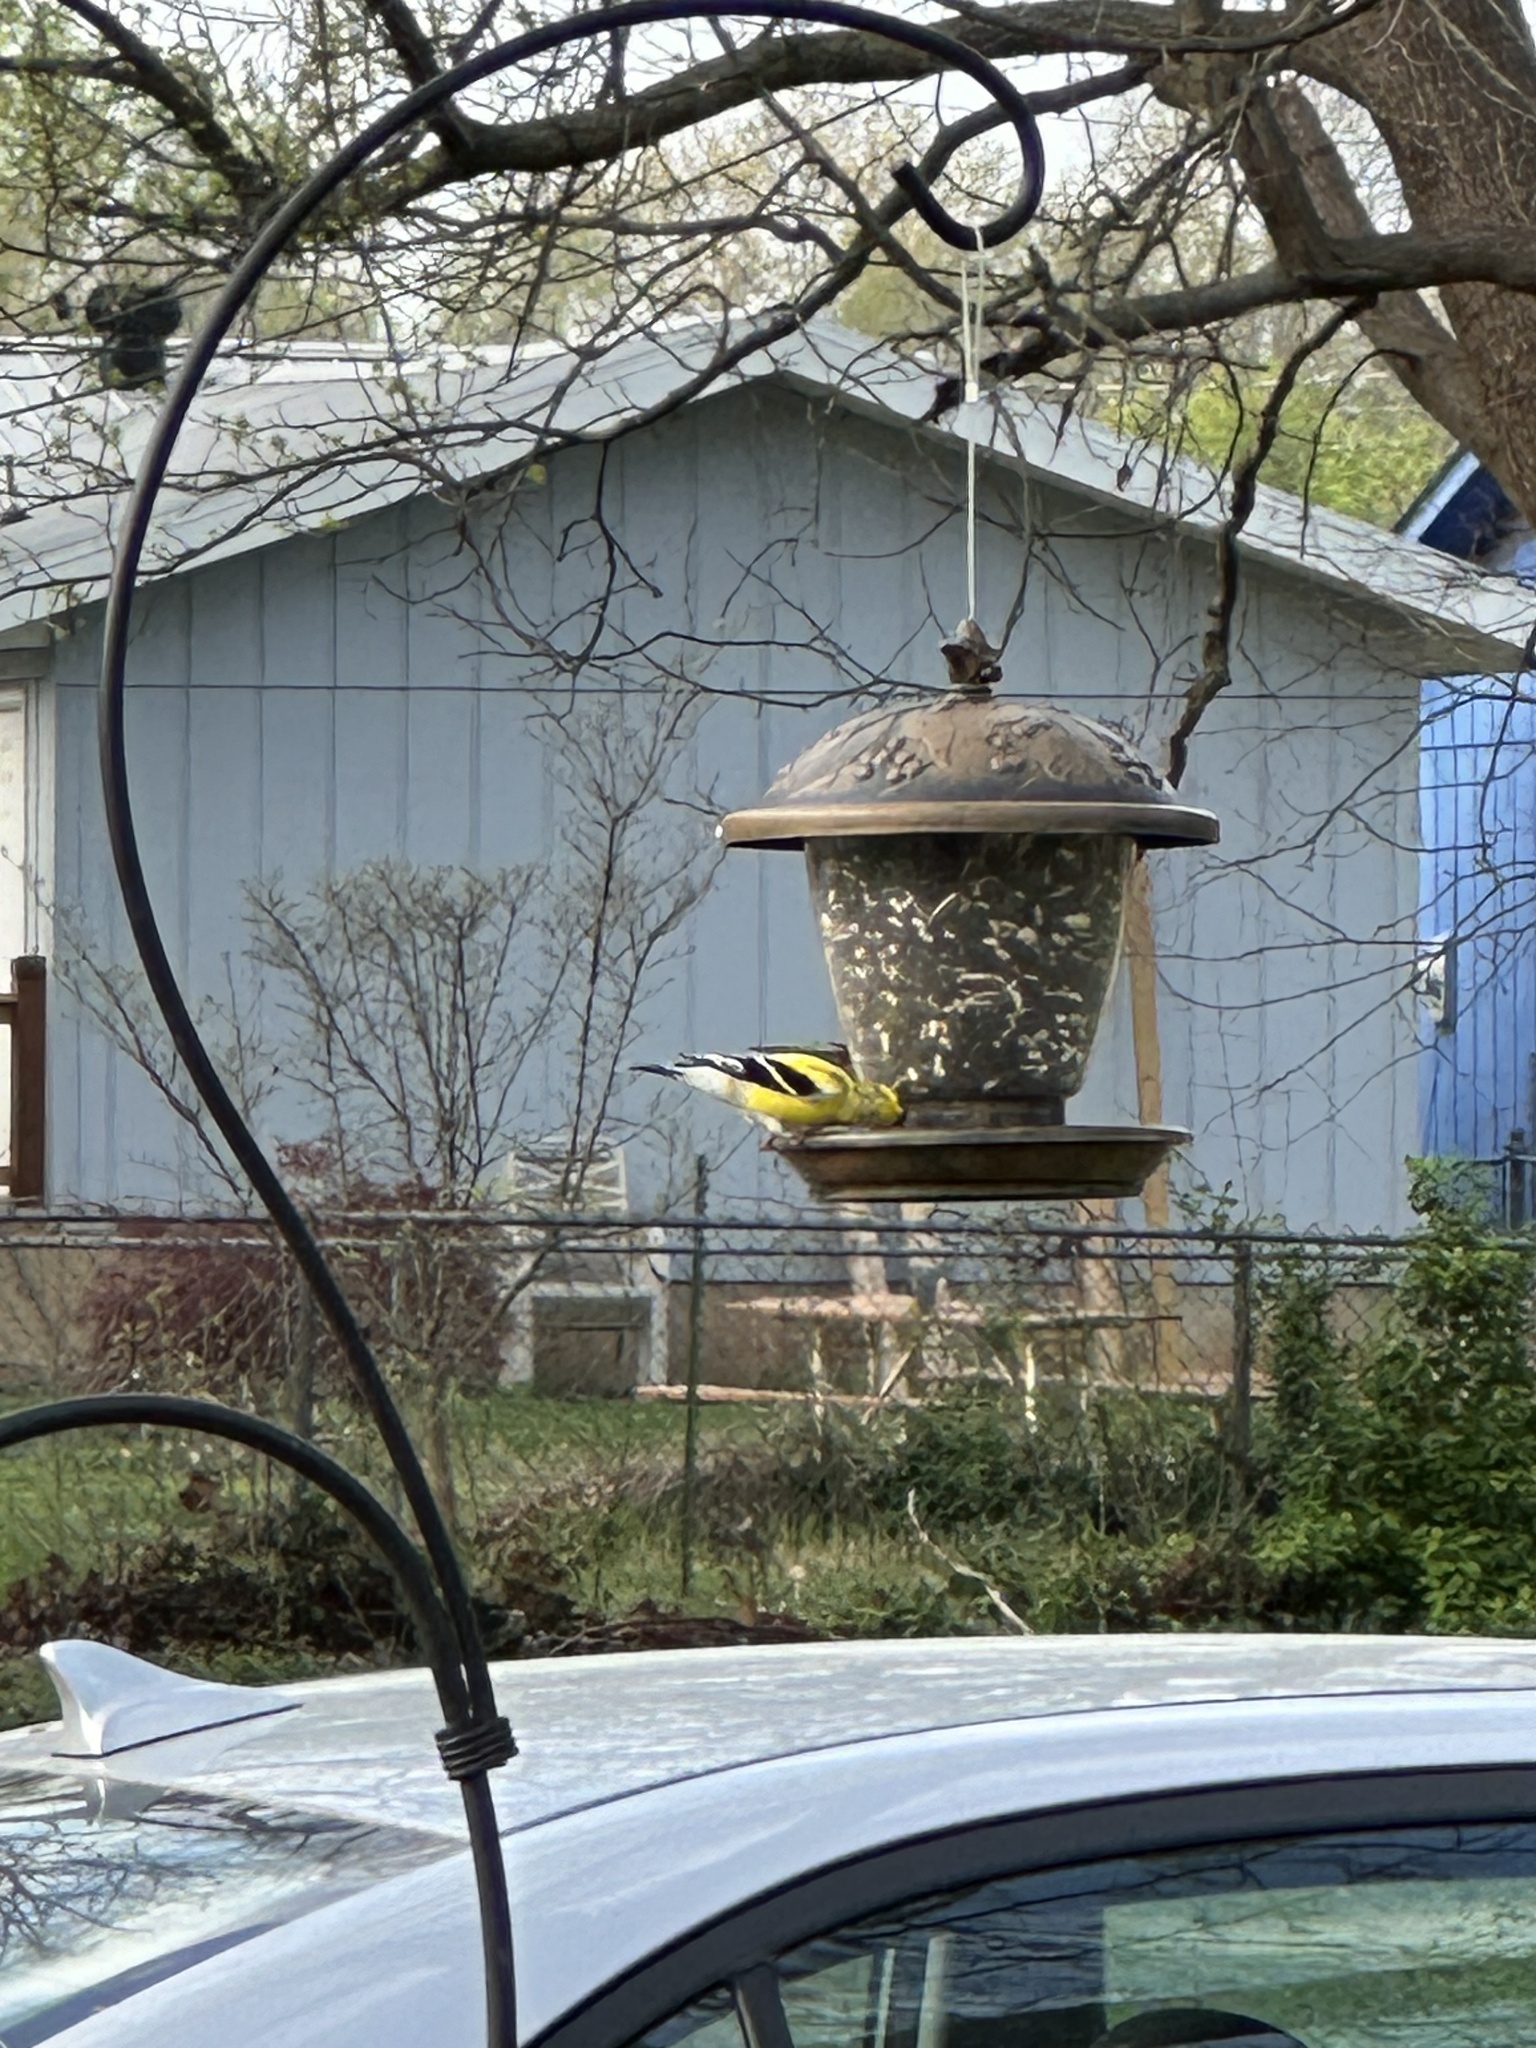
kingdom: Animalia
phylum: Chordata
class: Aves
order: Passeriformes
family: Fringillidae
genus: Spinus
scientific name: Spinus tristis
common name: American goldfinch
